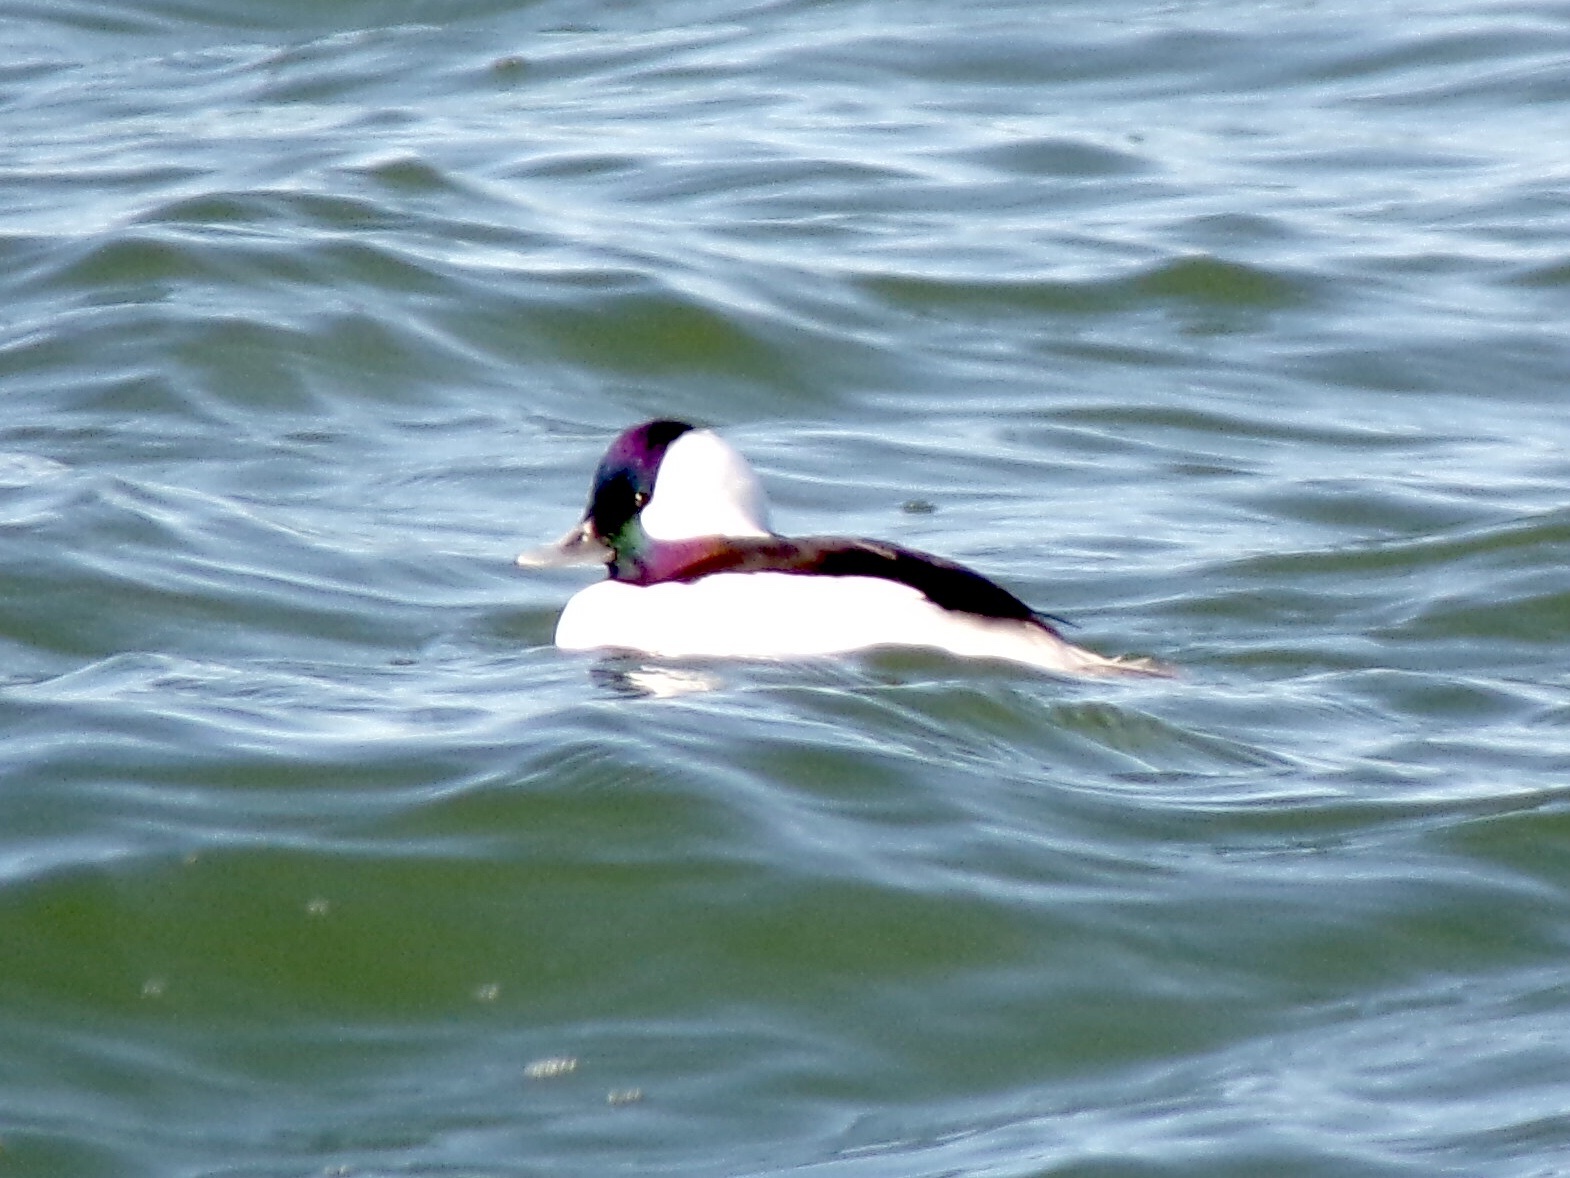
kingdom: Animalia
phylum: Chordata
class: Aves
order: Anseriformes
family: Anatidae
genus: Bucephala
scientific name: Bucephala albeola
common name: Bufflehead
